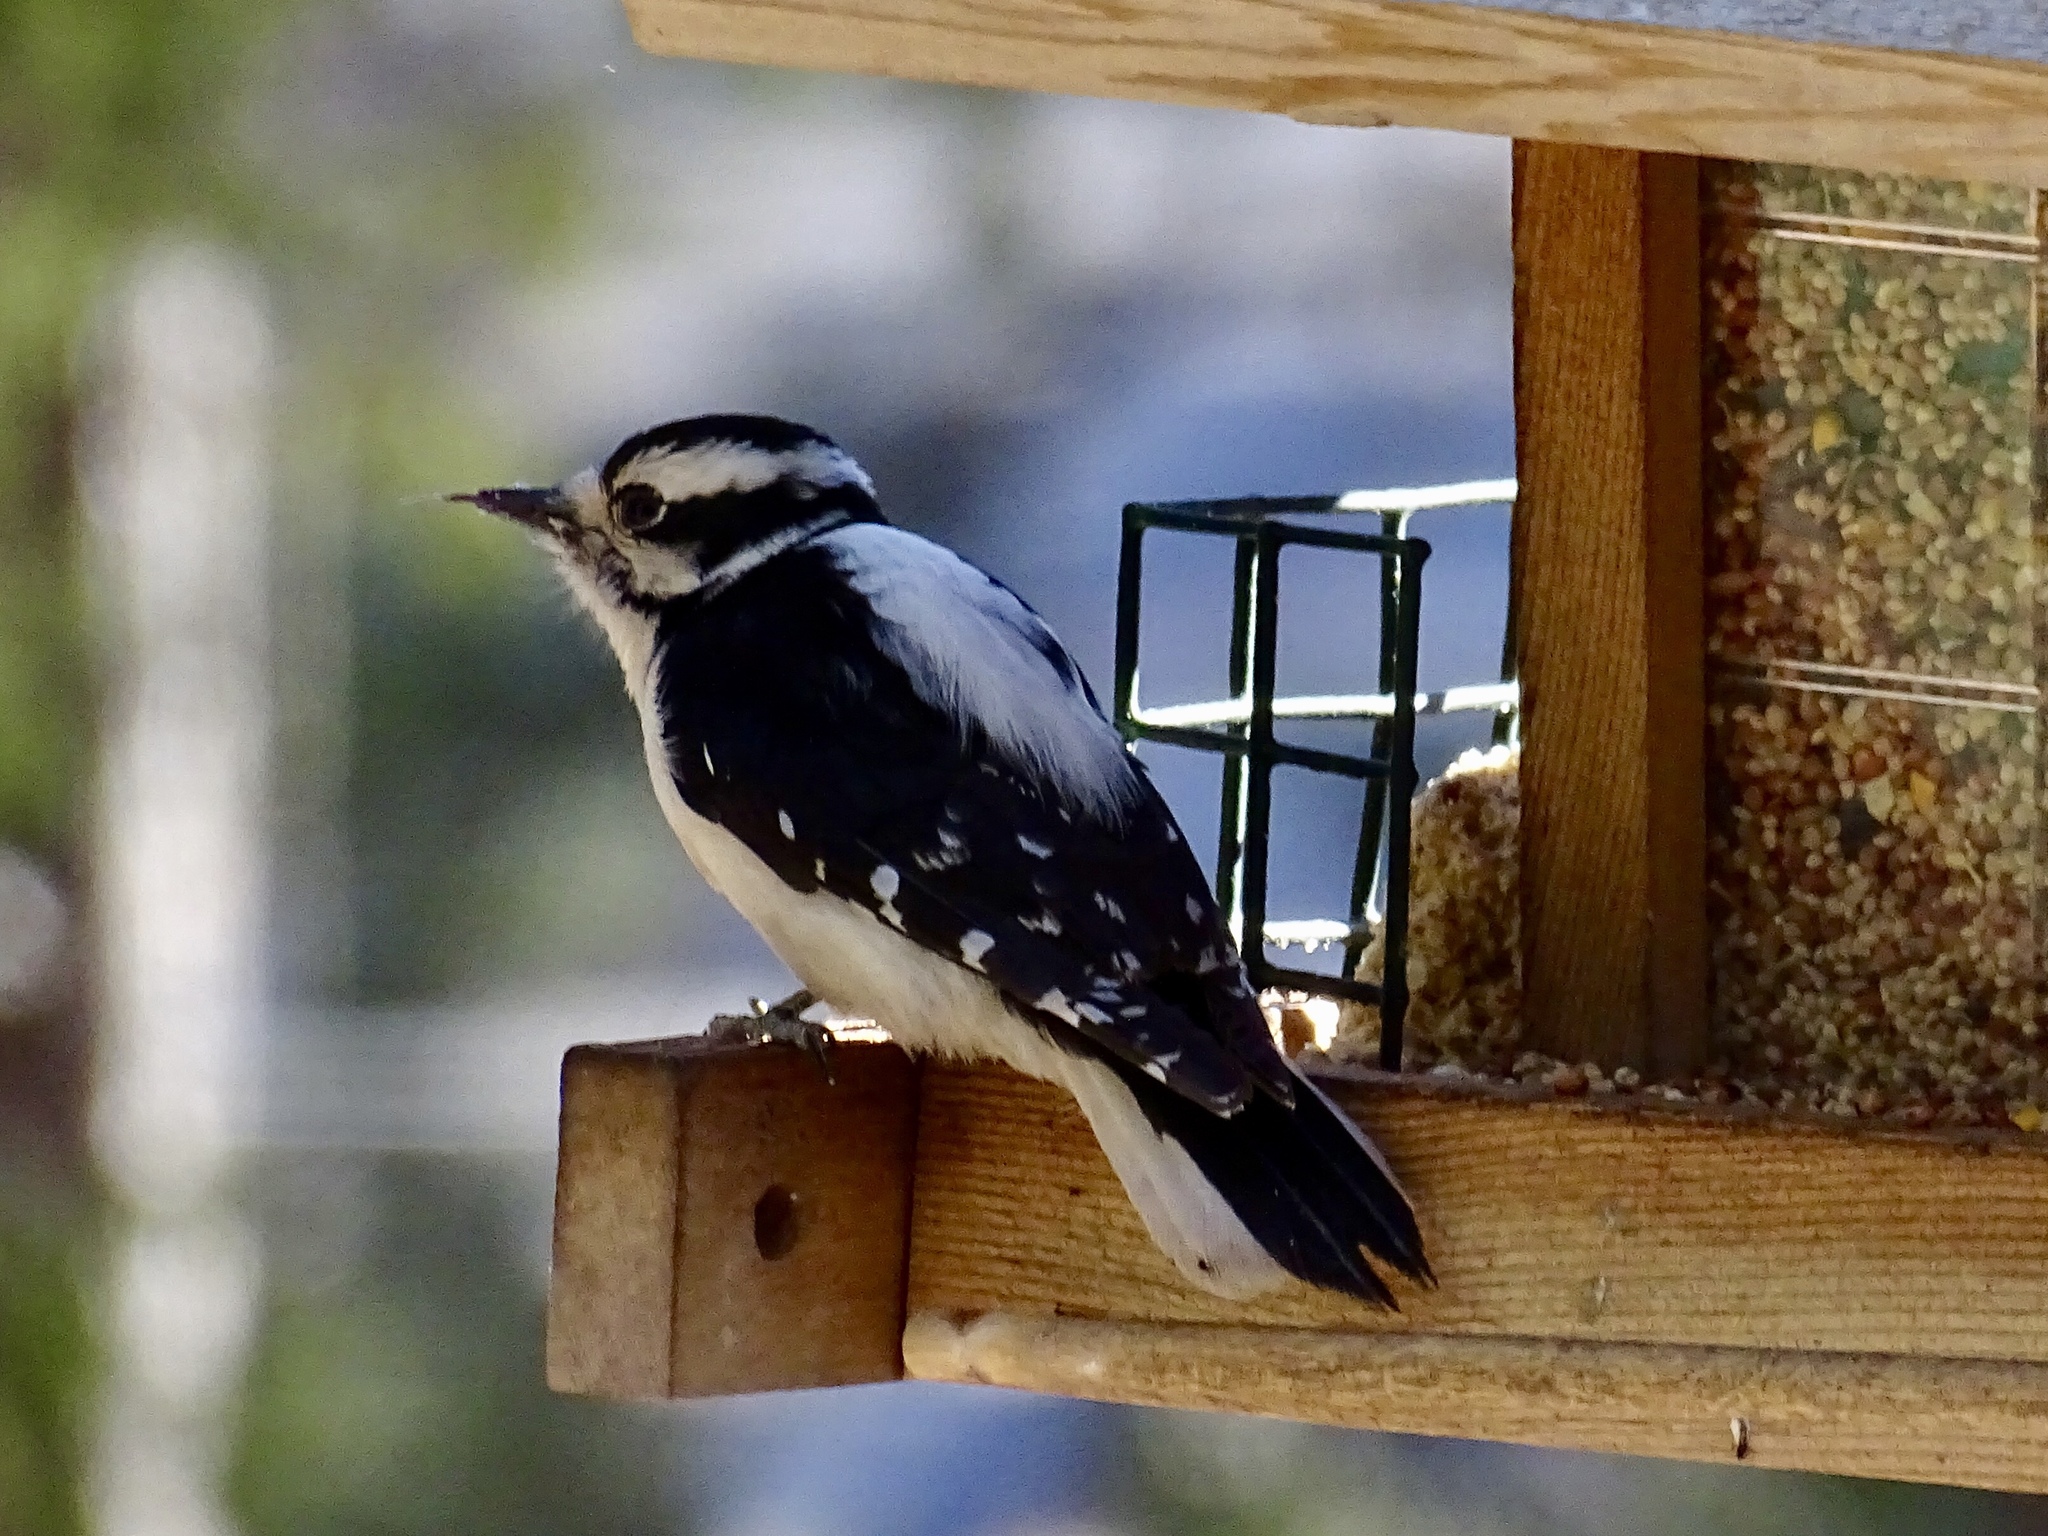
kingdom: Animalia
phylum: Chordata
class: Aves
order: Piciformes
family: Picidae
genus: Dryobates
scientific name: Dryobates pubescens
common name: Downy woodpecker
